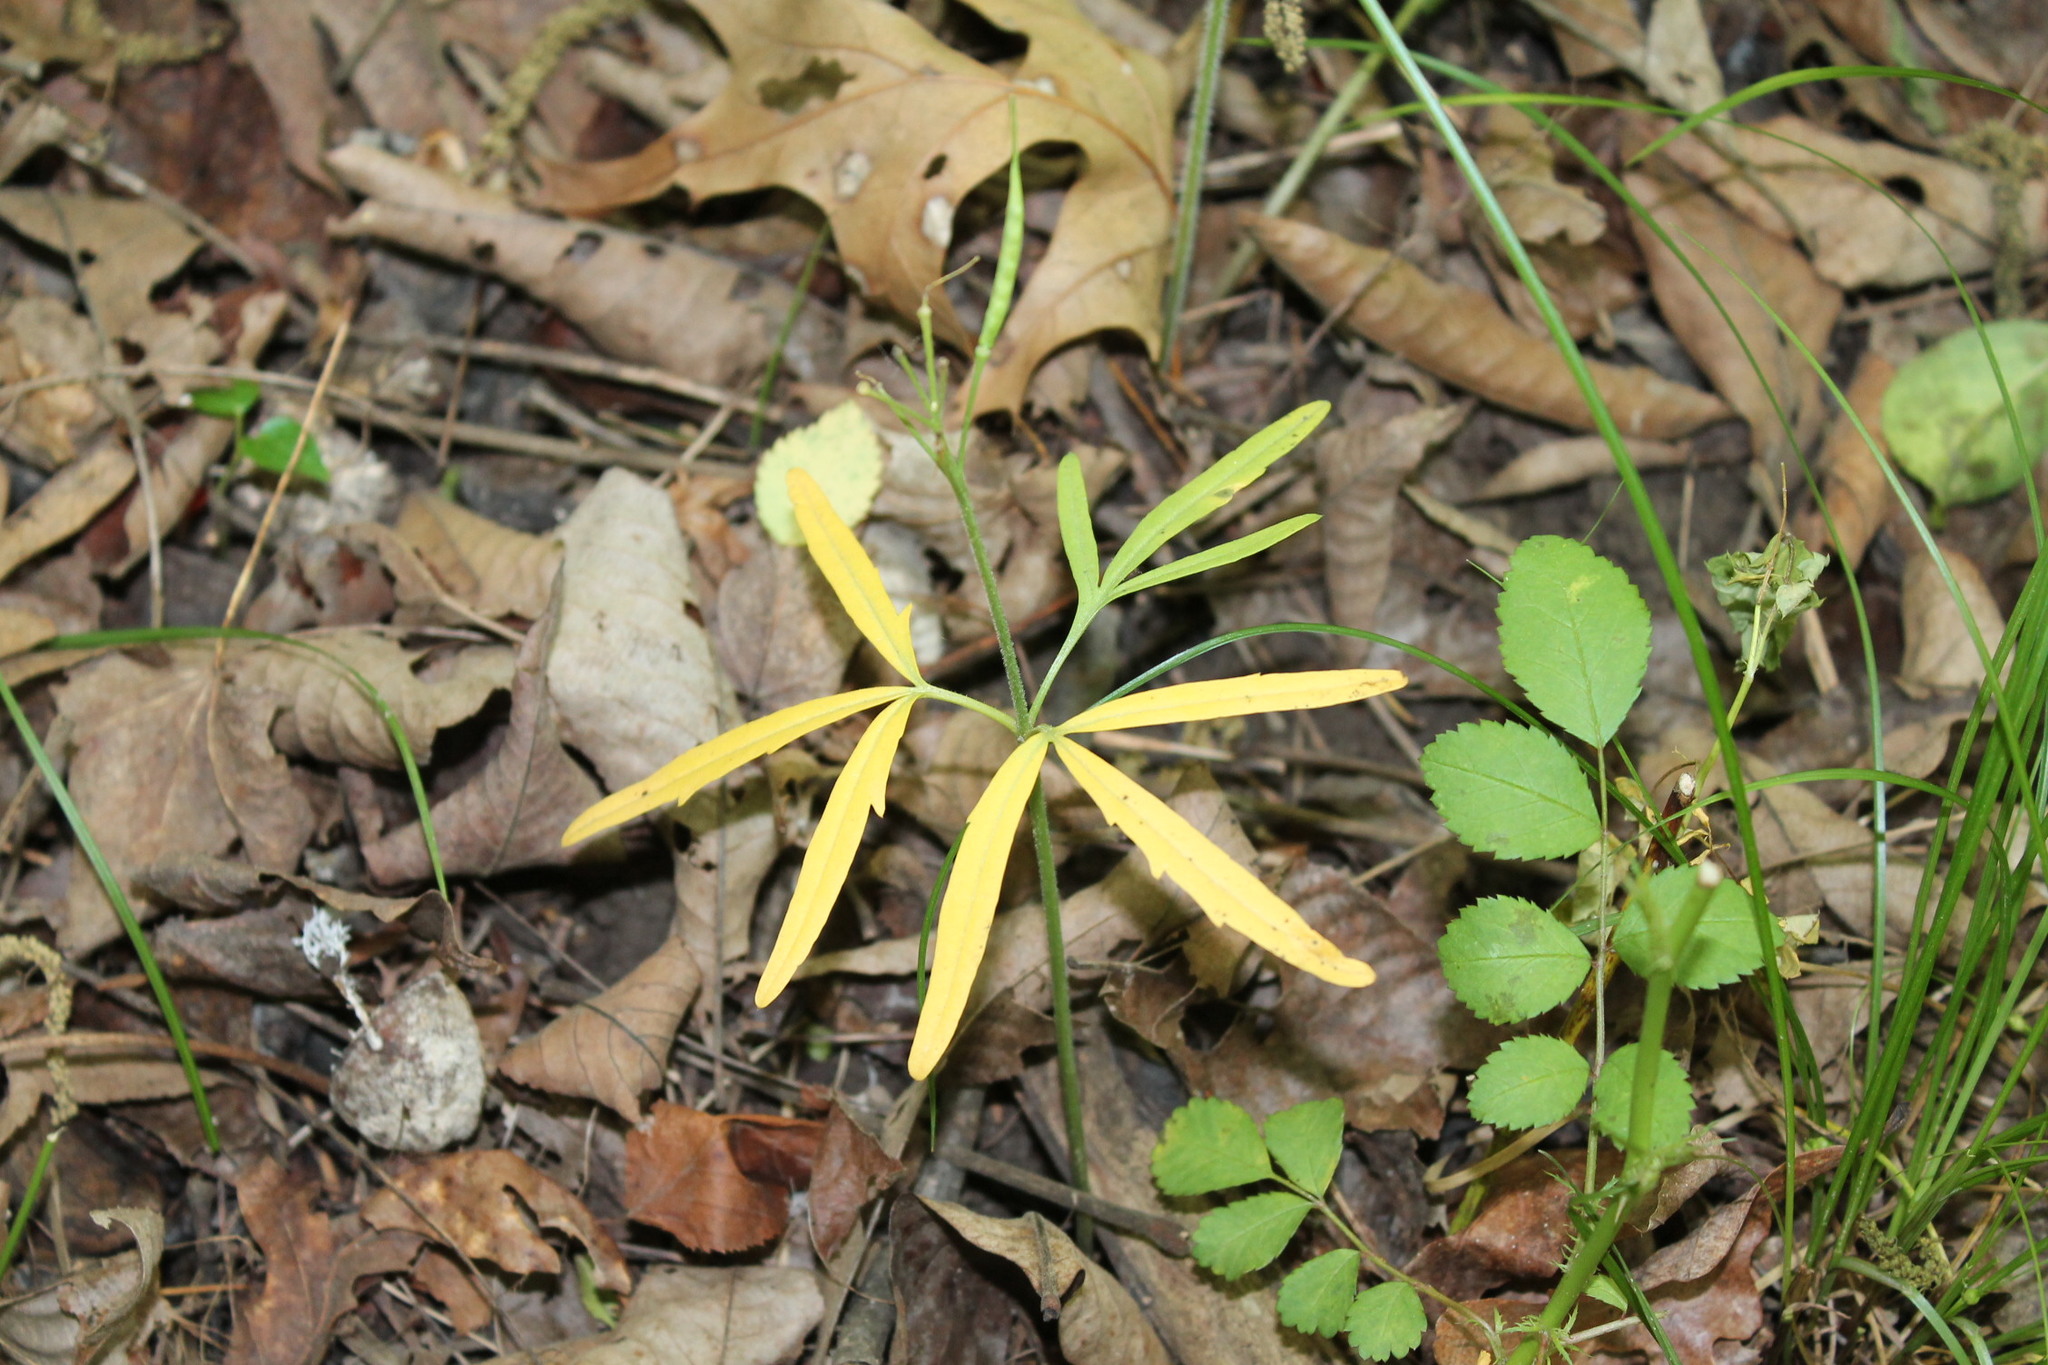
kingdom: Plantae
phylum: Tracheophyta
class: Magnoliopsida
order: Brassicales
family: Brassicaceae
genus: Cardamine
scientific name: Cardamine concatenata
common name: Cut-leaf toothcup
